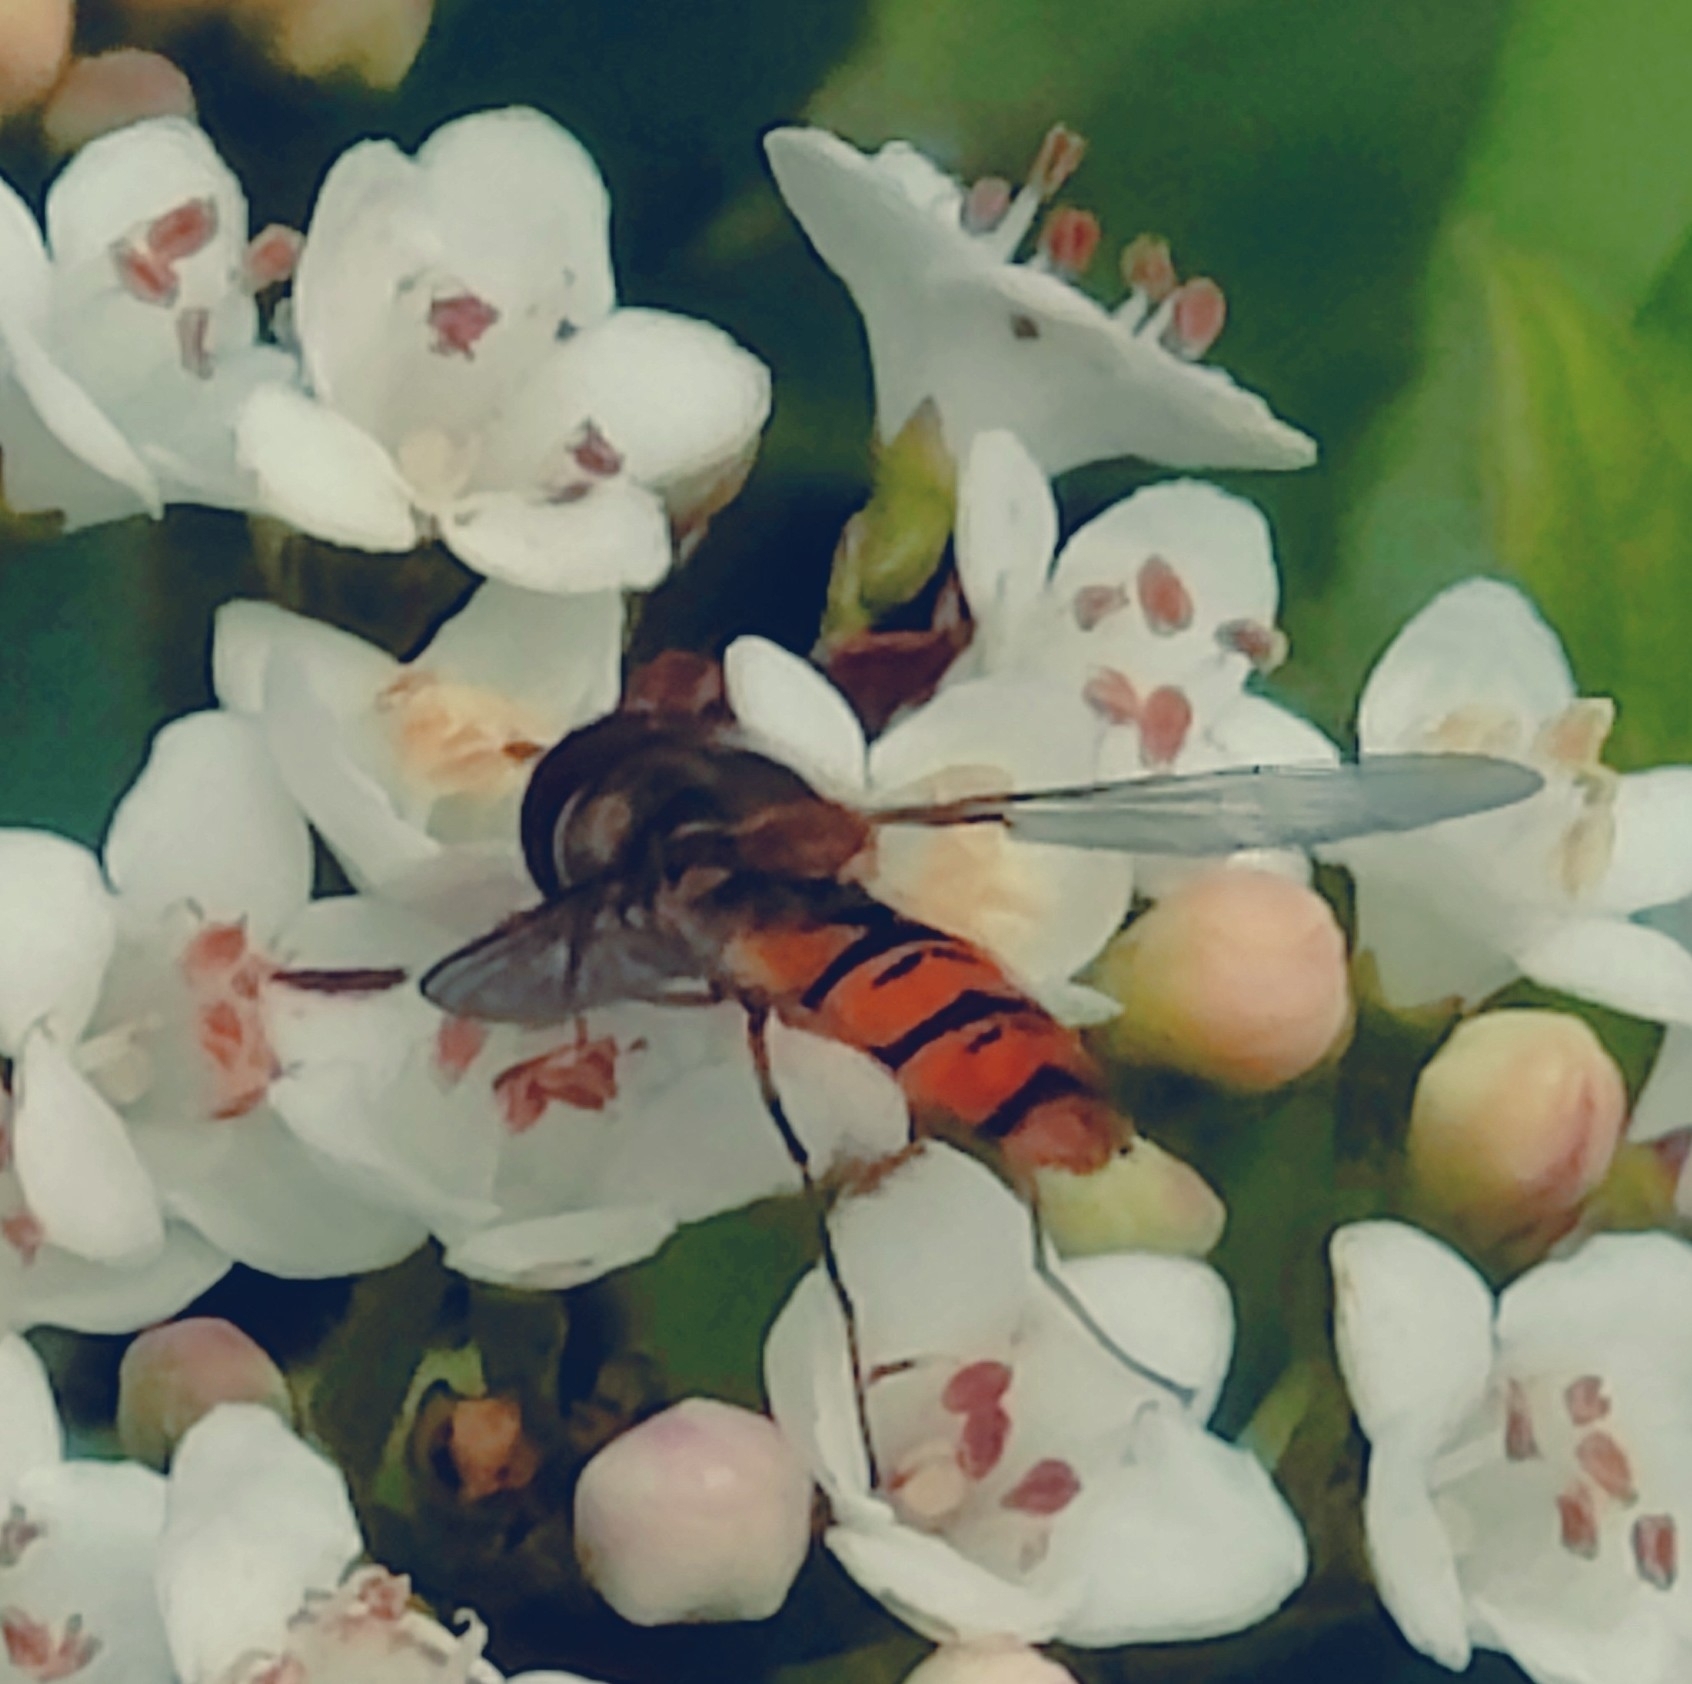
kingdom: Animalia
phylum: Arthropoda
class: Insecta
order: Diptera
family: Syrphidae
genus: Episyrphus
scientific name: Episyrphus balteatus
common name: Marmalade hoverfly
